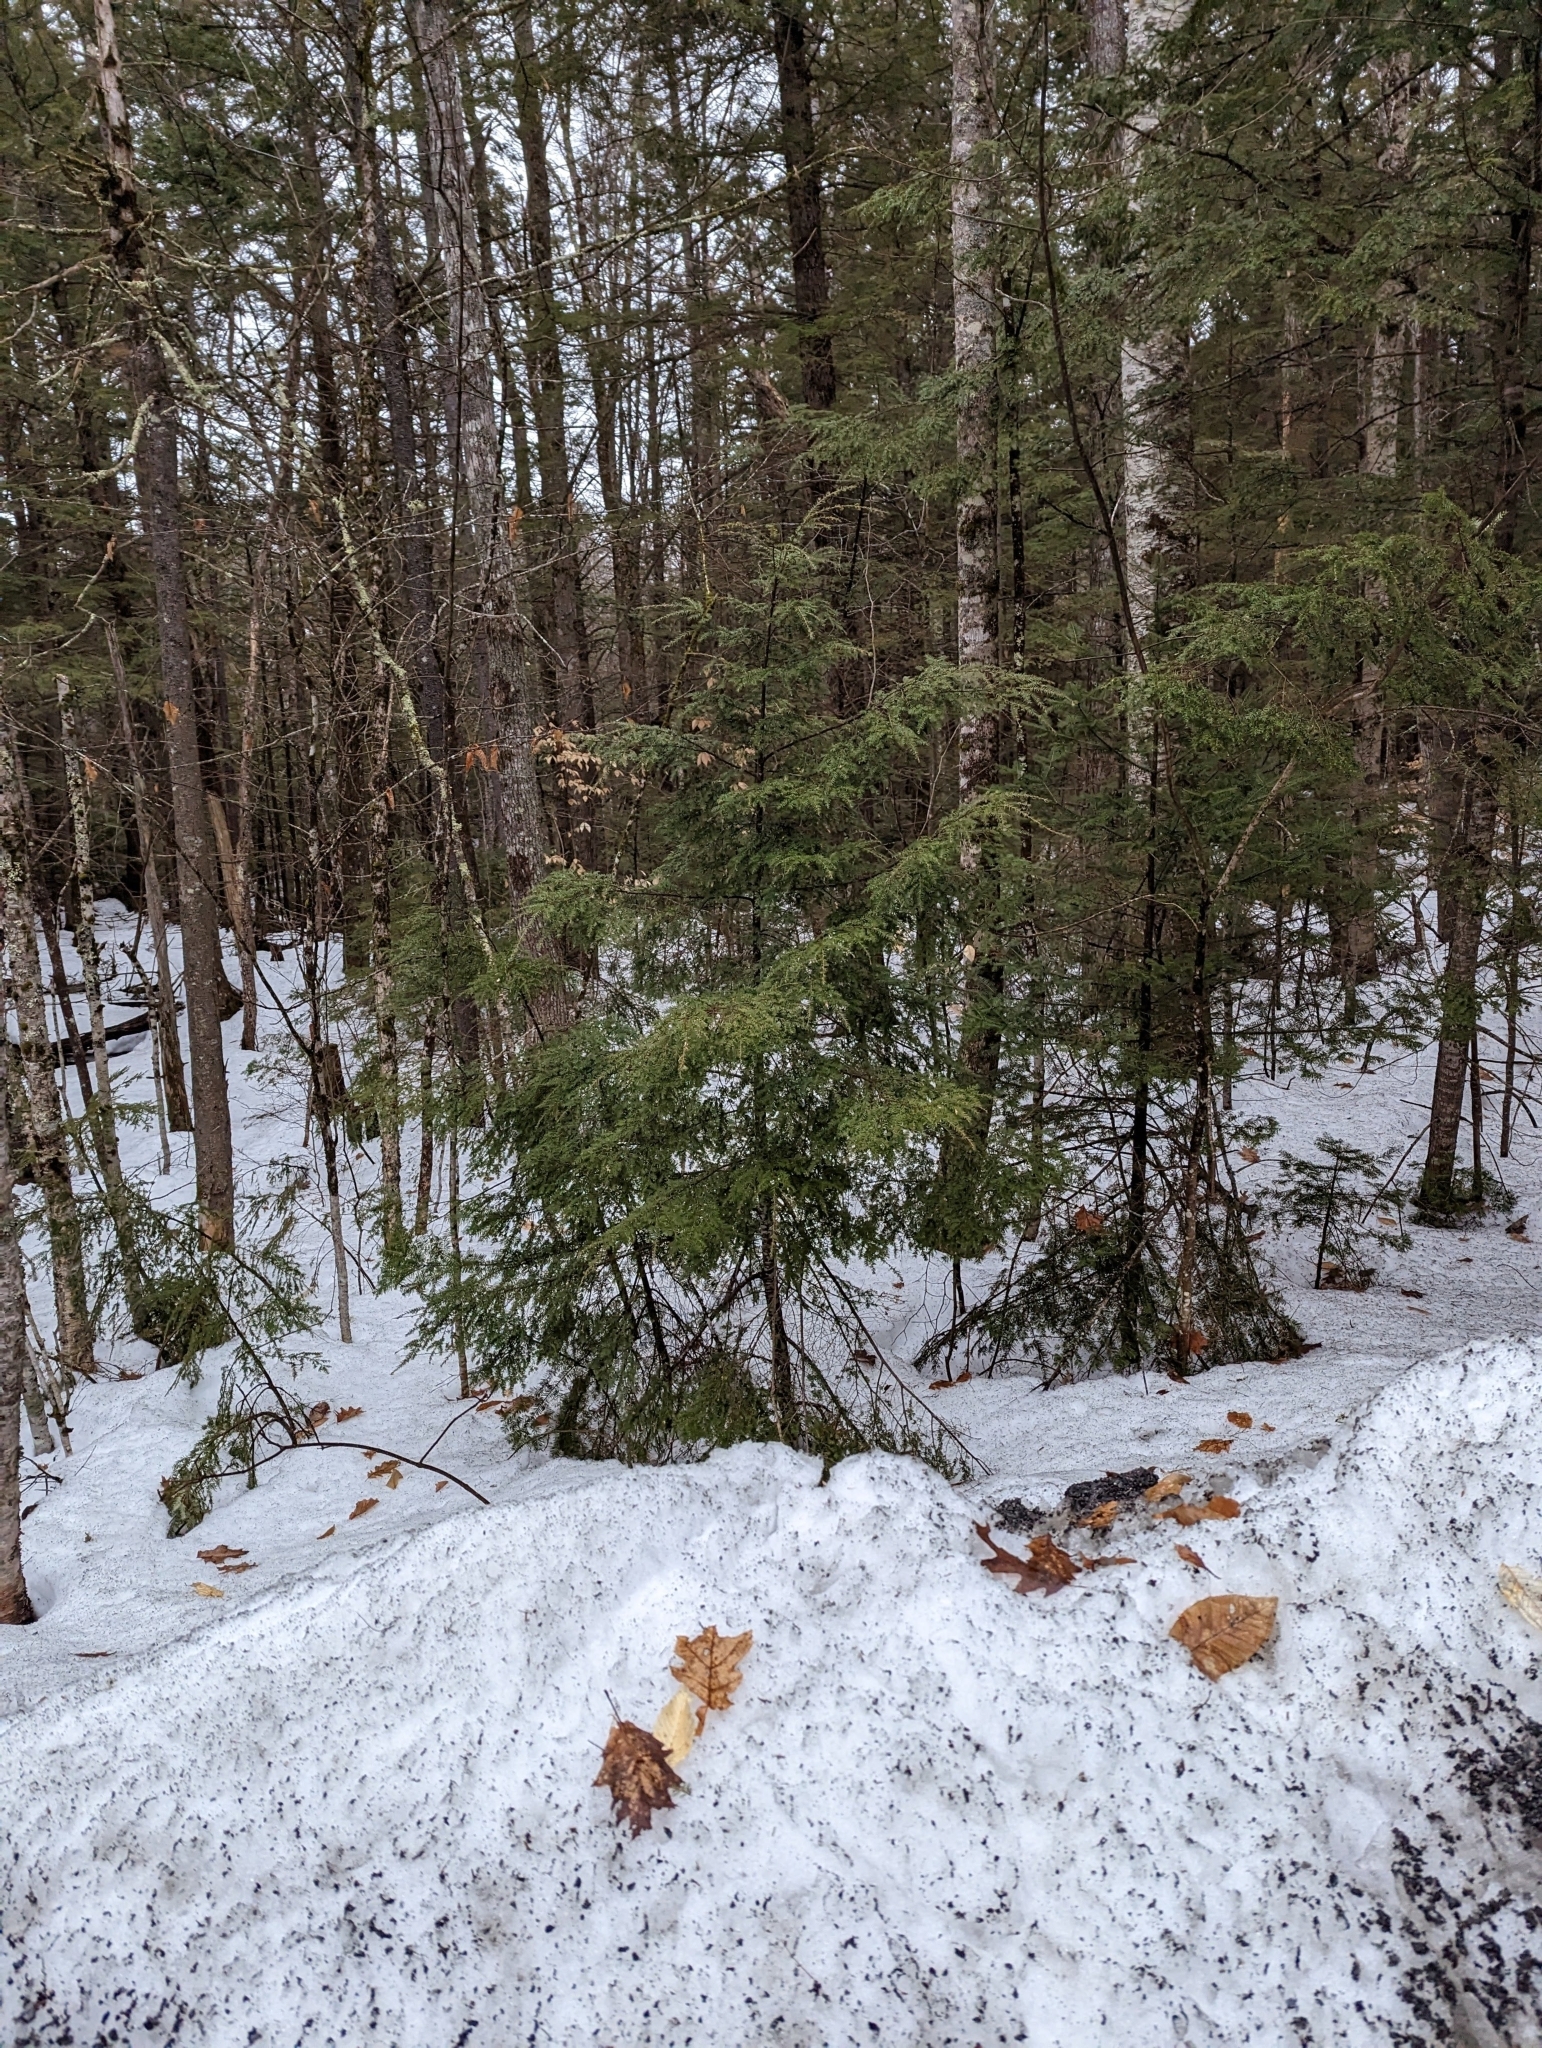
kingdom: Plantae
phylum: Tracheophyta
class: Pinopsida
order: Pinales
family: Pinaceae
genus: Tsuga
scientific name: Tsuga canadensis
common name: Eastern hemlock
